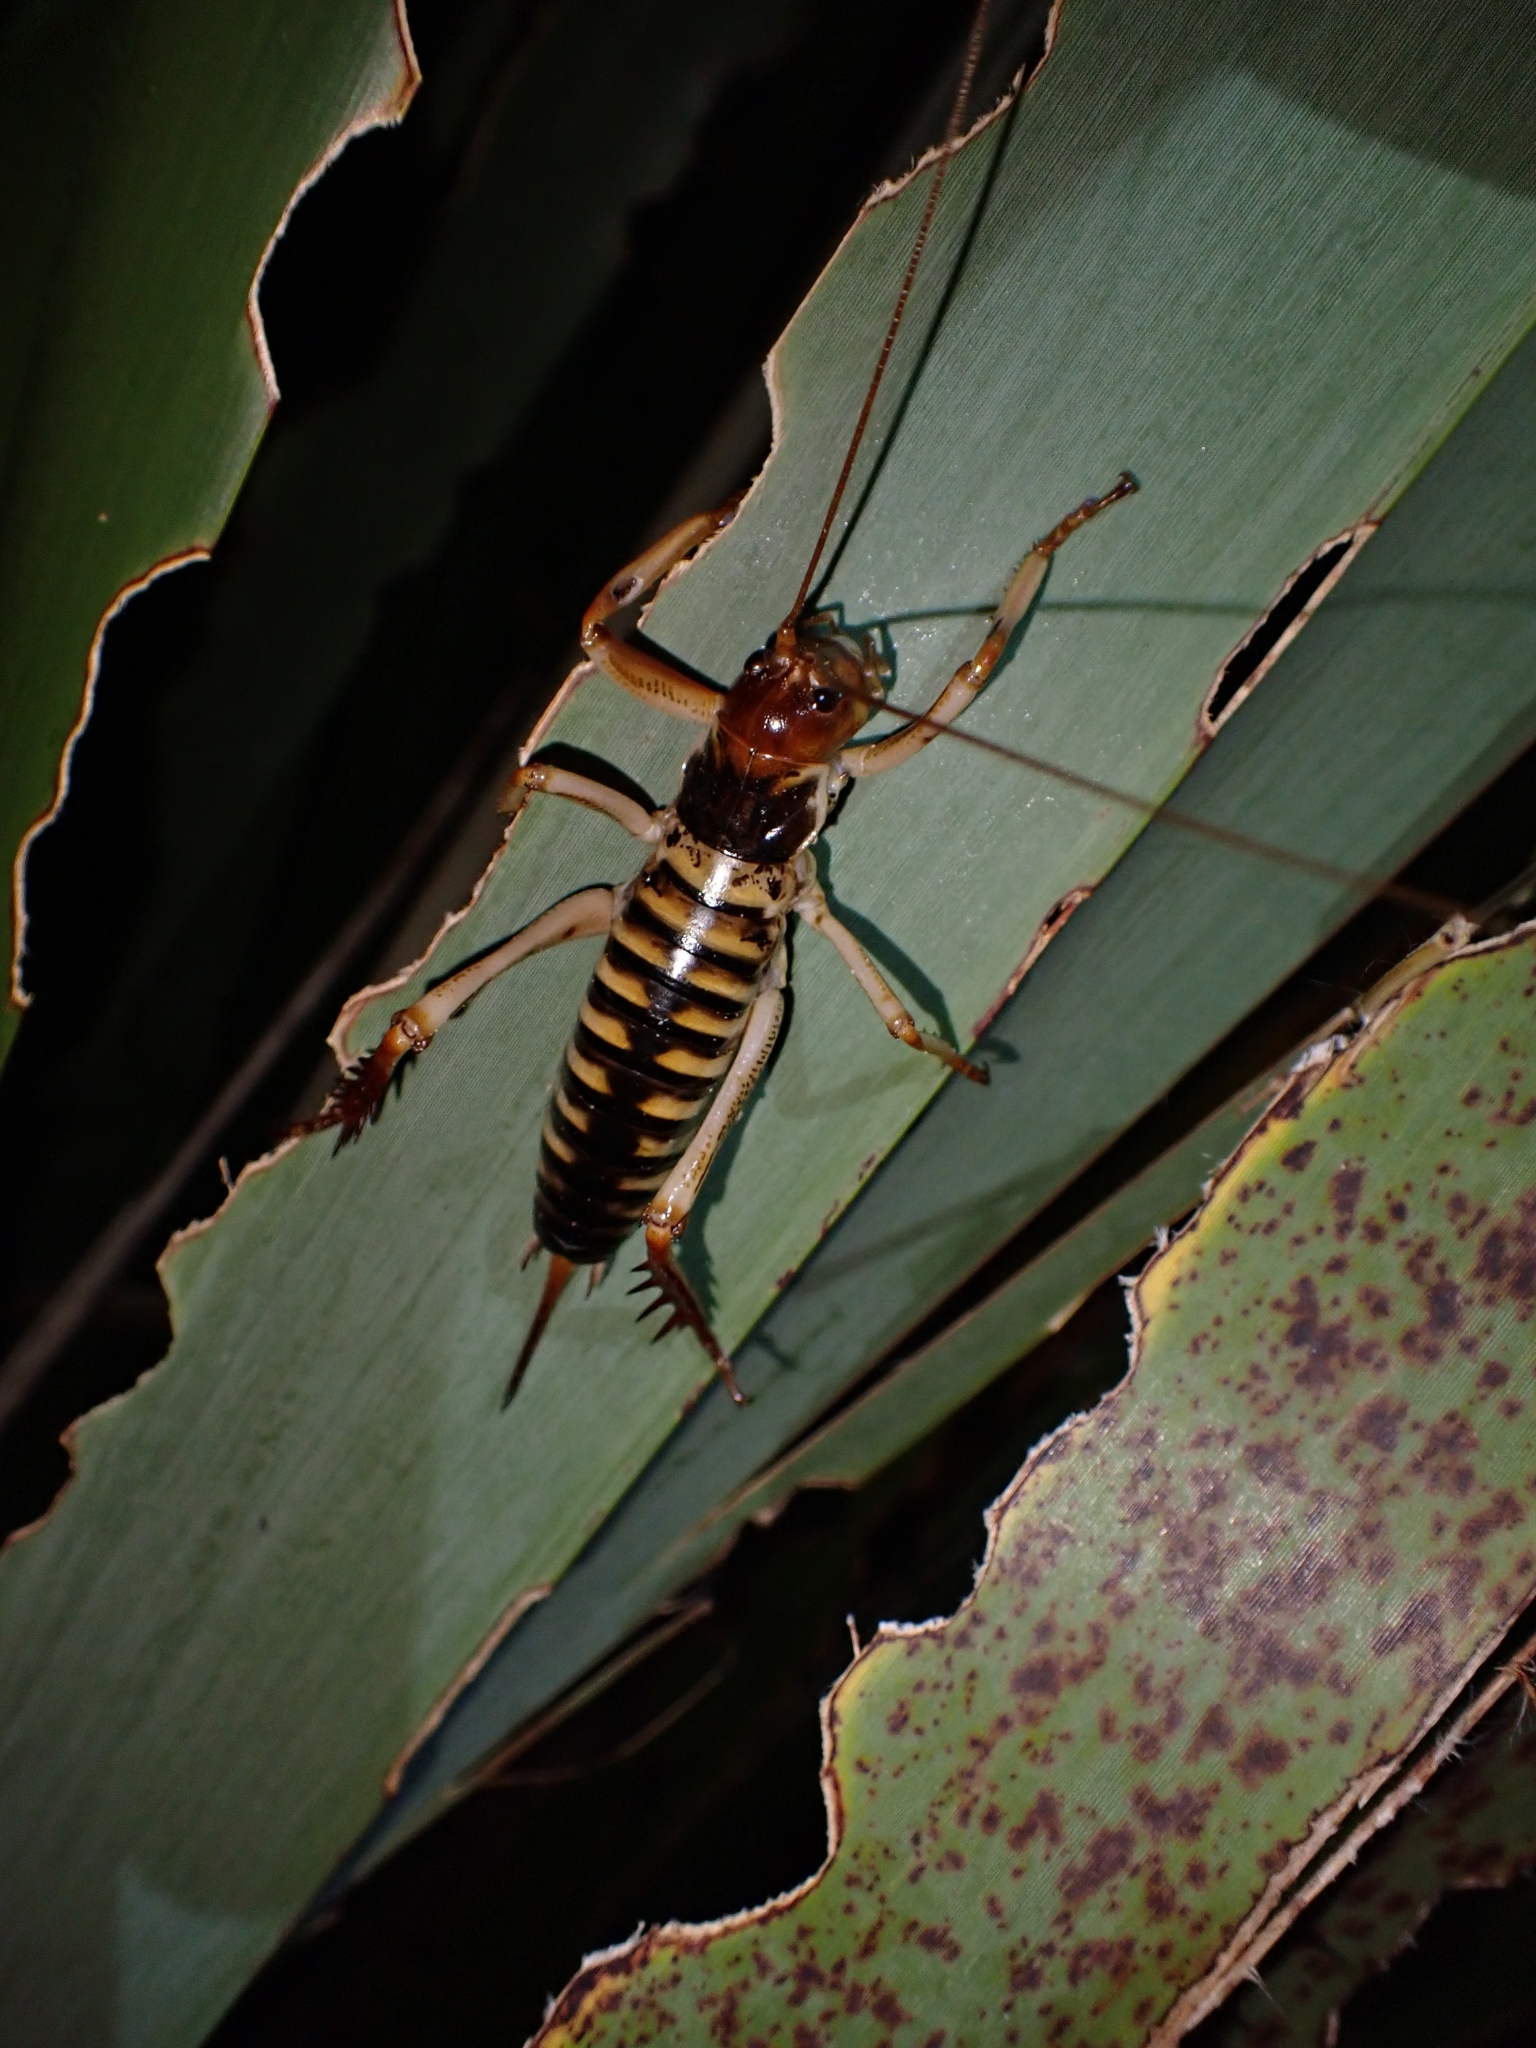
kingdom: Animalia
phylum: Arthropoda
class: Insecta
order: Orthoptera
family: Anostostomatidae
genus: Hemideina
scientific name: Hemideina crassidens
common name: Wellington tree weta
